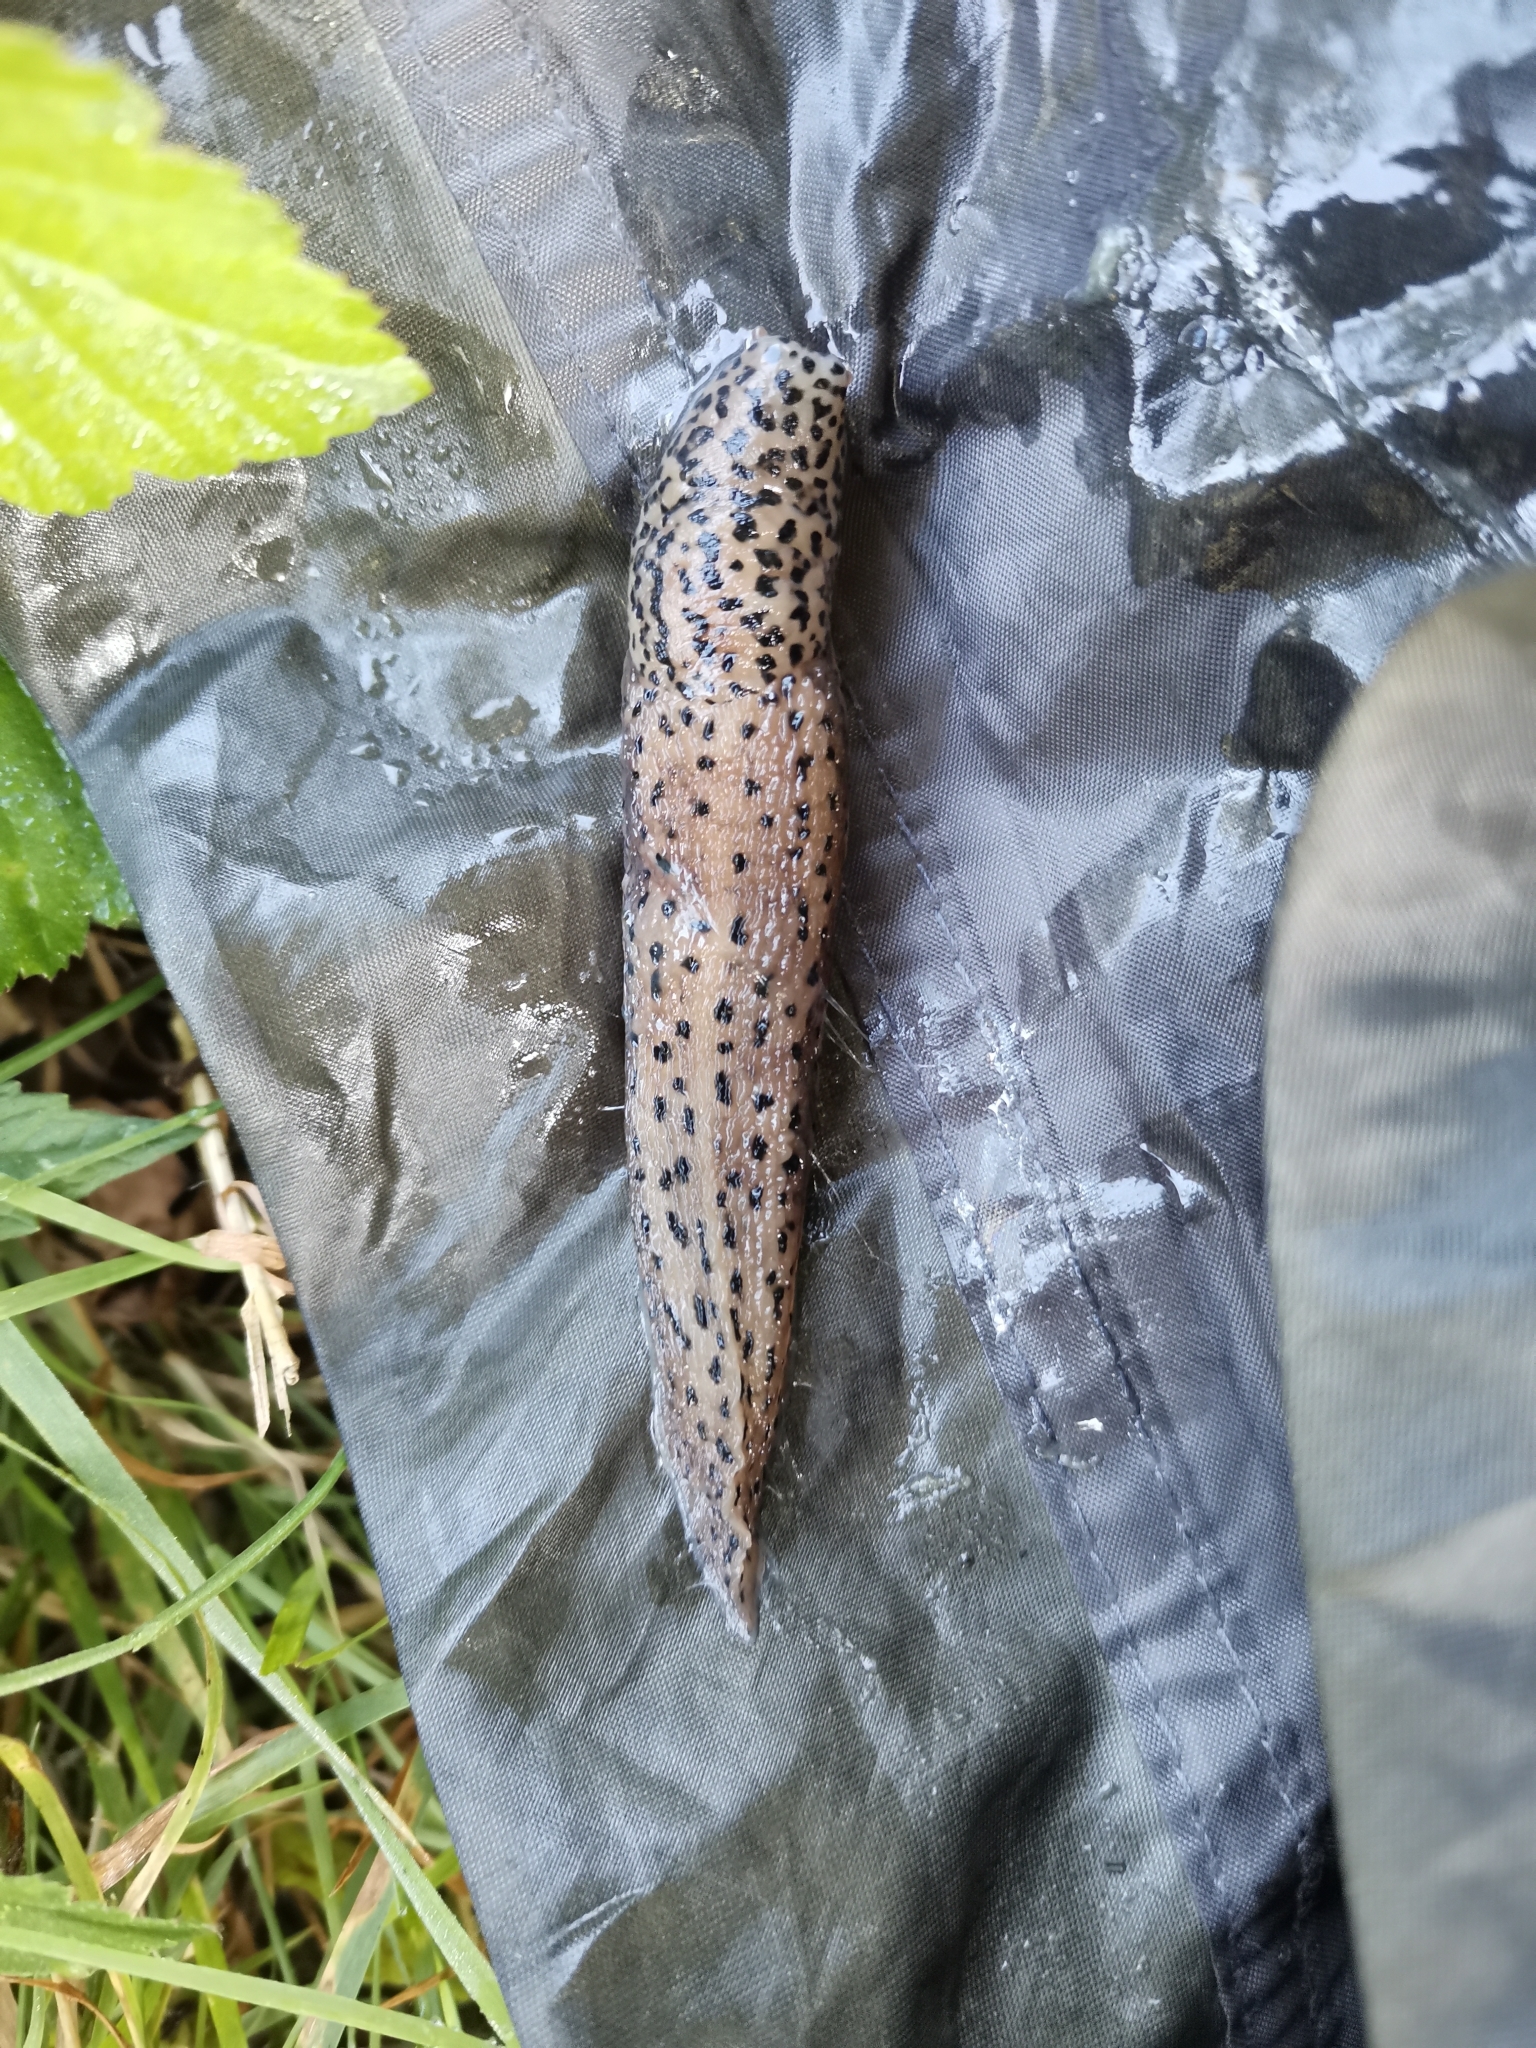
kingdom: Animalia
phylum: Mollusca
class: Gastropoda
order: Stylommatophora
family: Limacidae
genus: Limax
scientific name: Limax maximus
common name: Great grey slug
